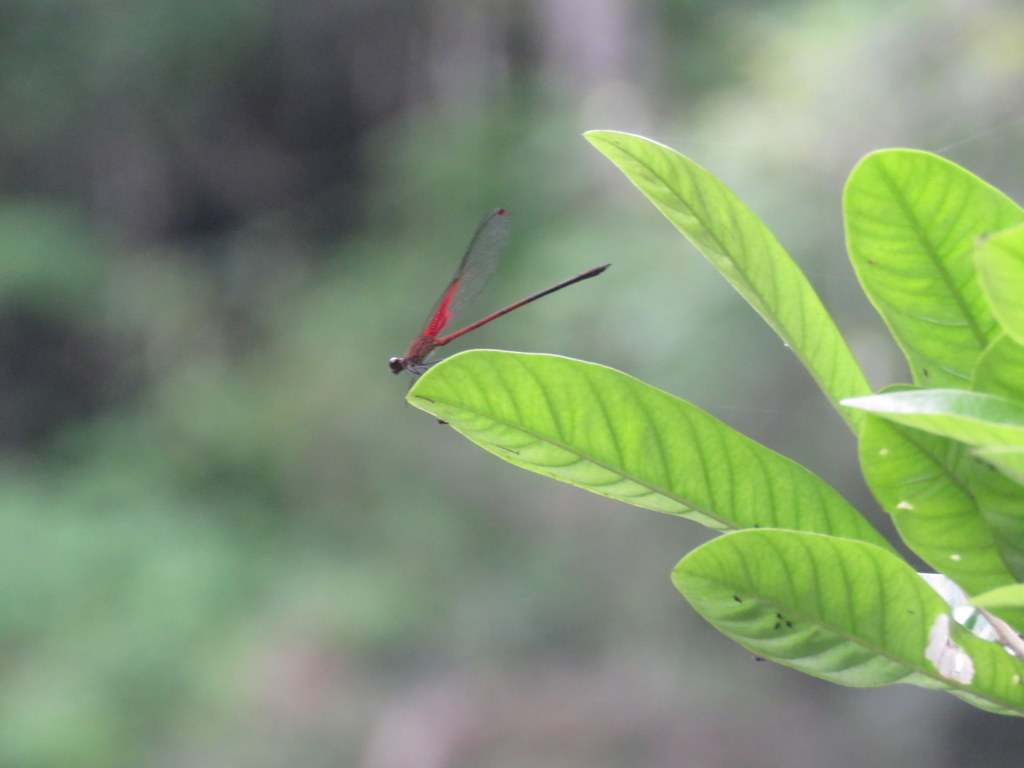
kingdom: Animalia
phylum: Arthropoda
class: Insecta
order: Odonata
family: Calopterygidae
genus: Hetaerina
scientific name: Hetaerina rosea
